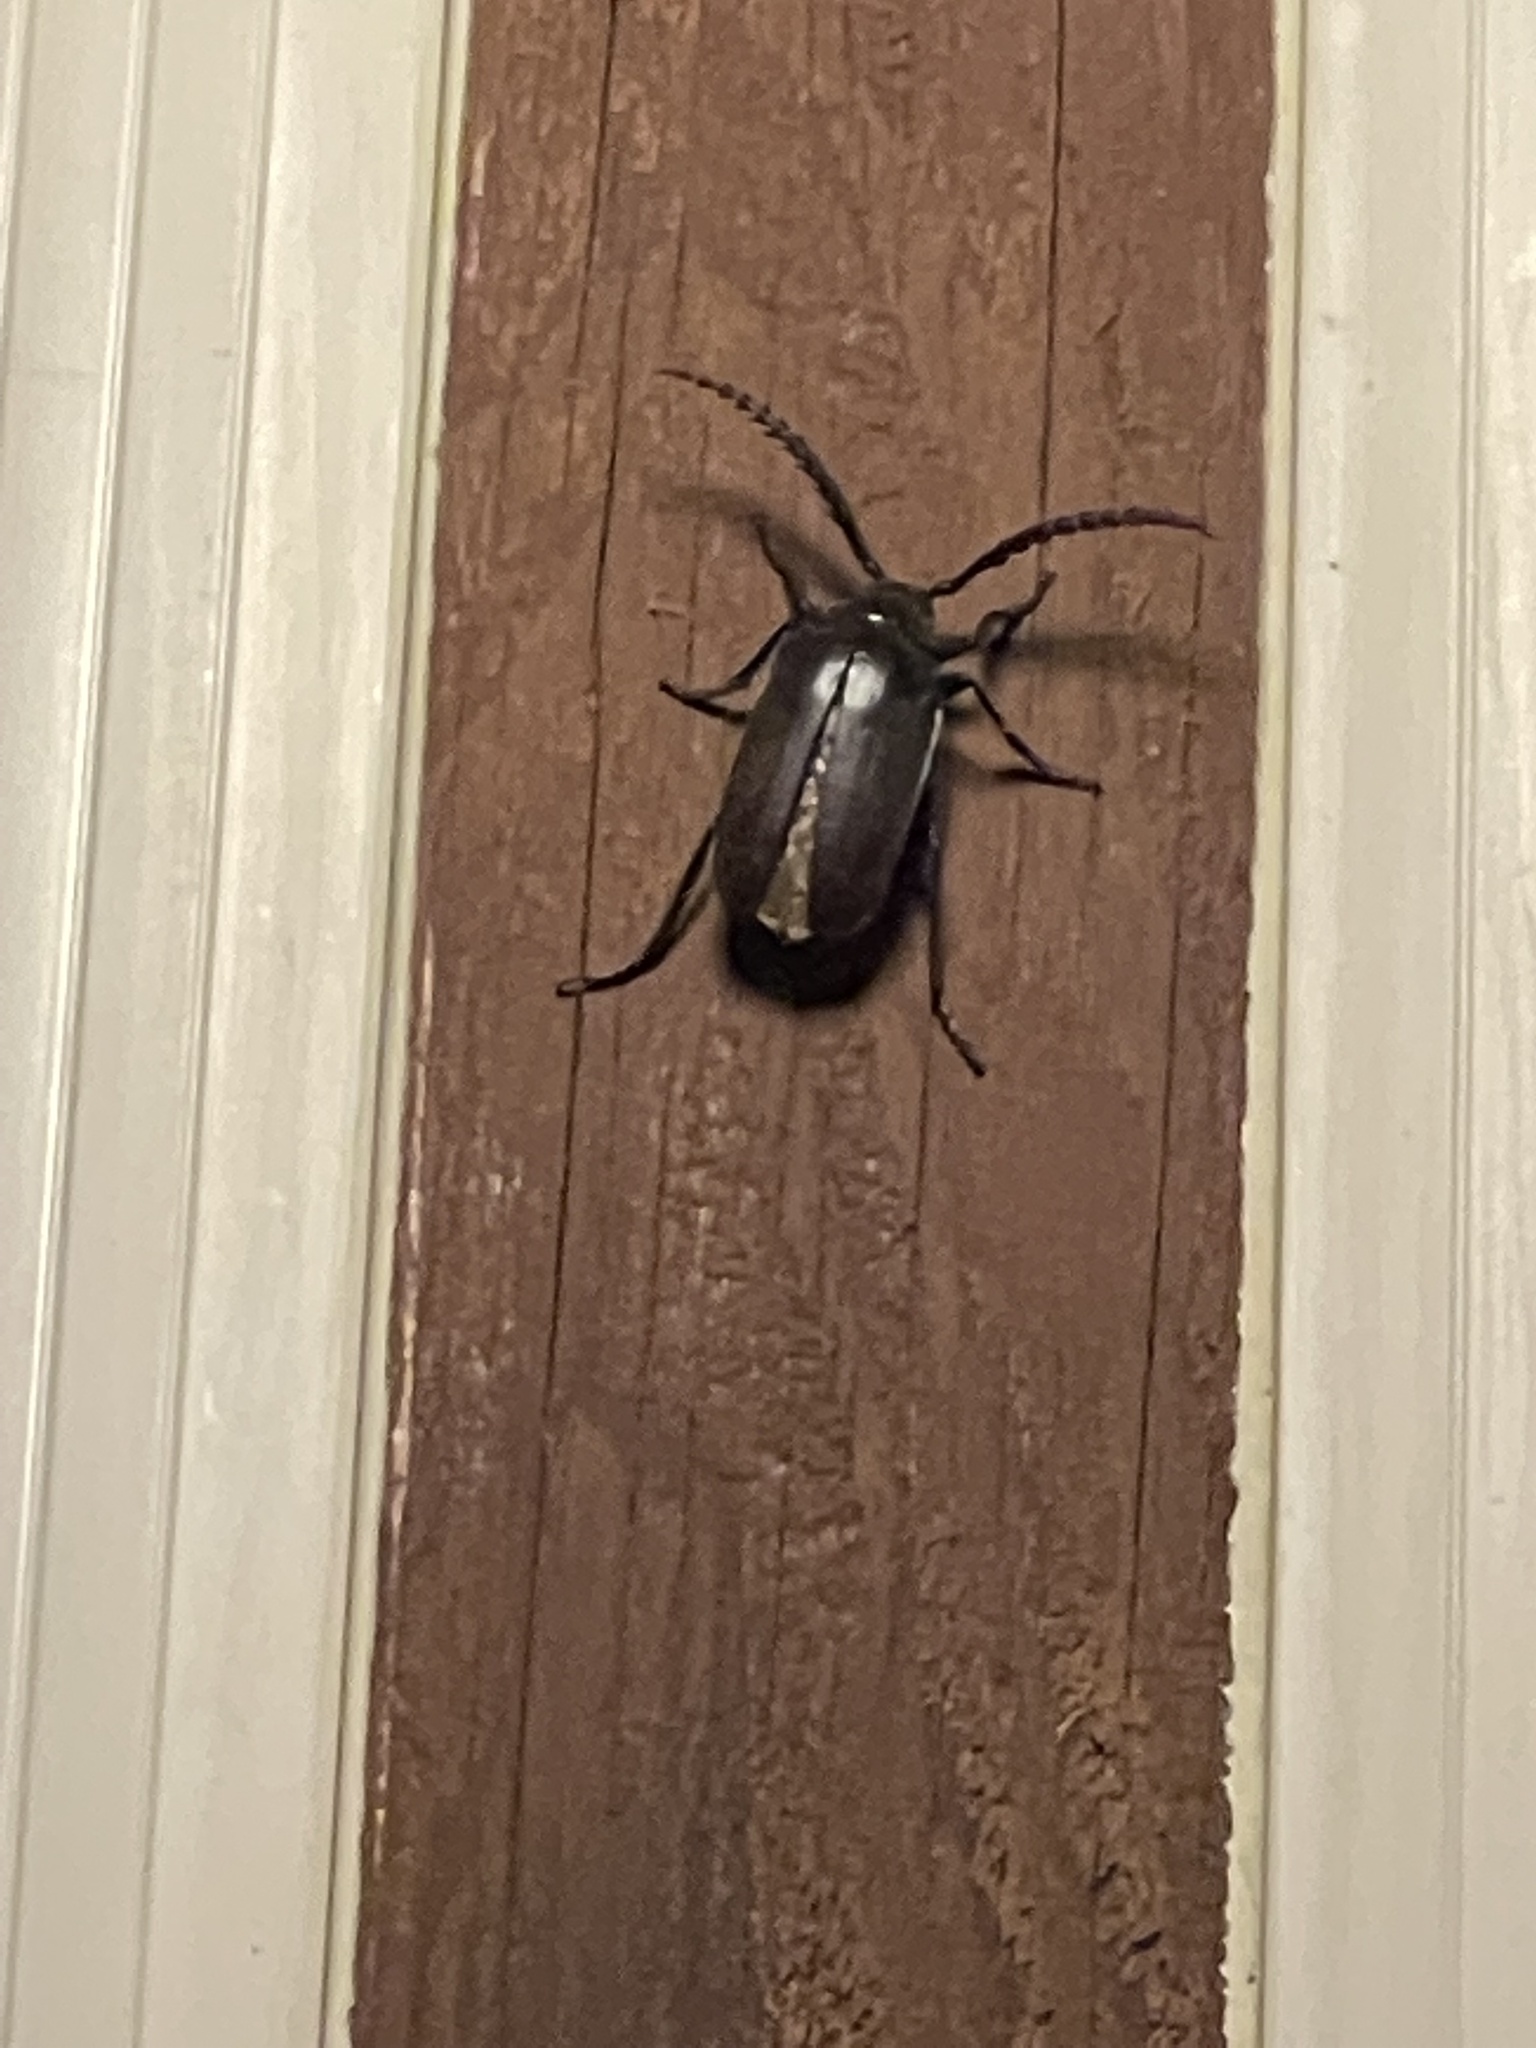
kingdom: Animalia
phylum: Arthropoda
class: Insecta
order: Coleoptera
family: Cerambycidae
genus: Prionus
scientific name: Prionus californicus
